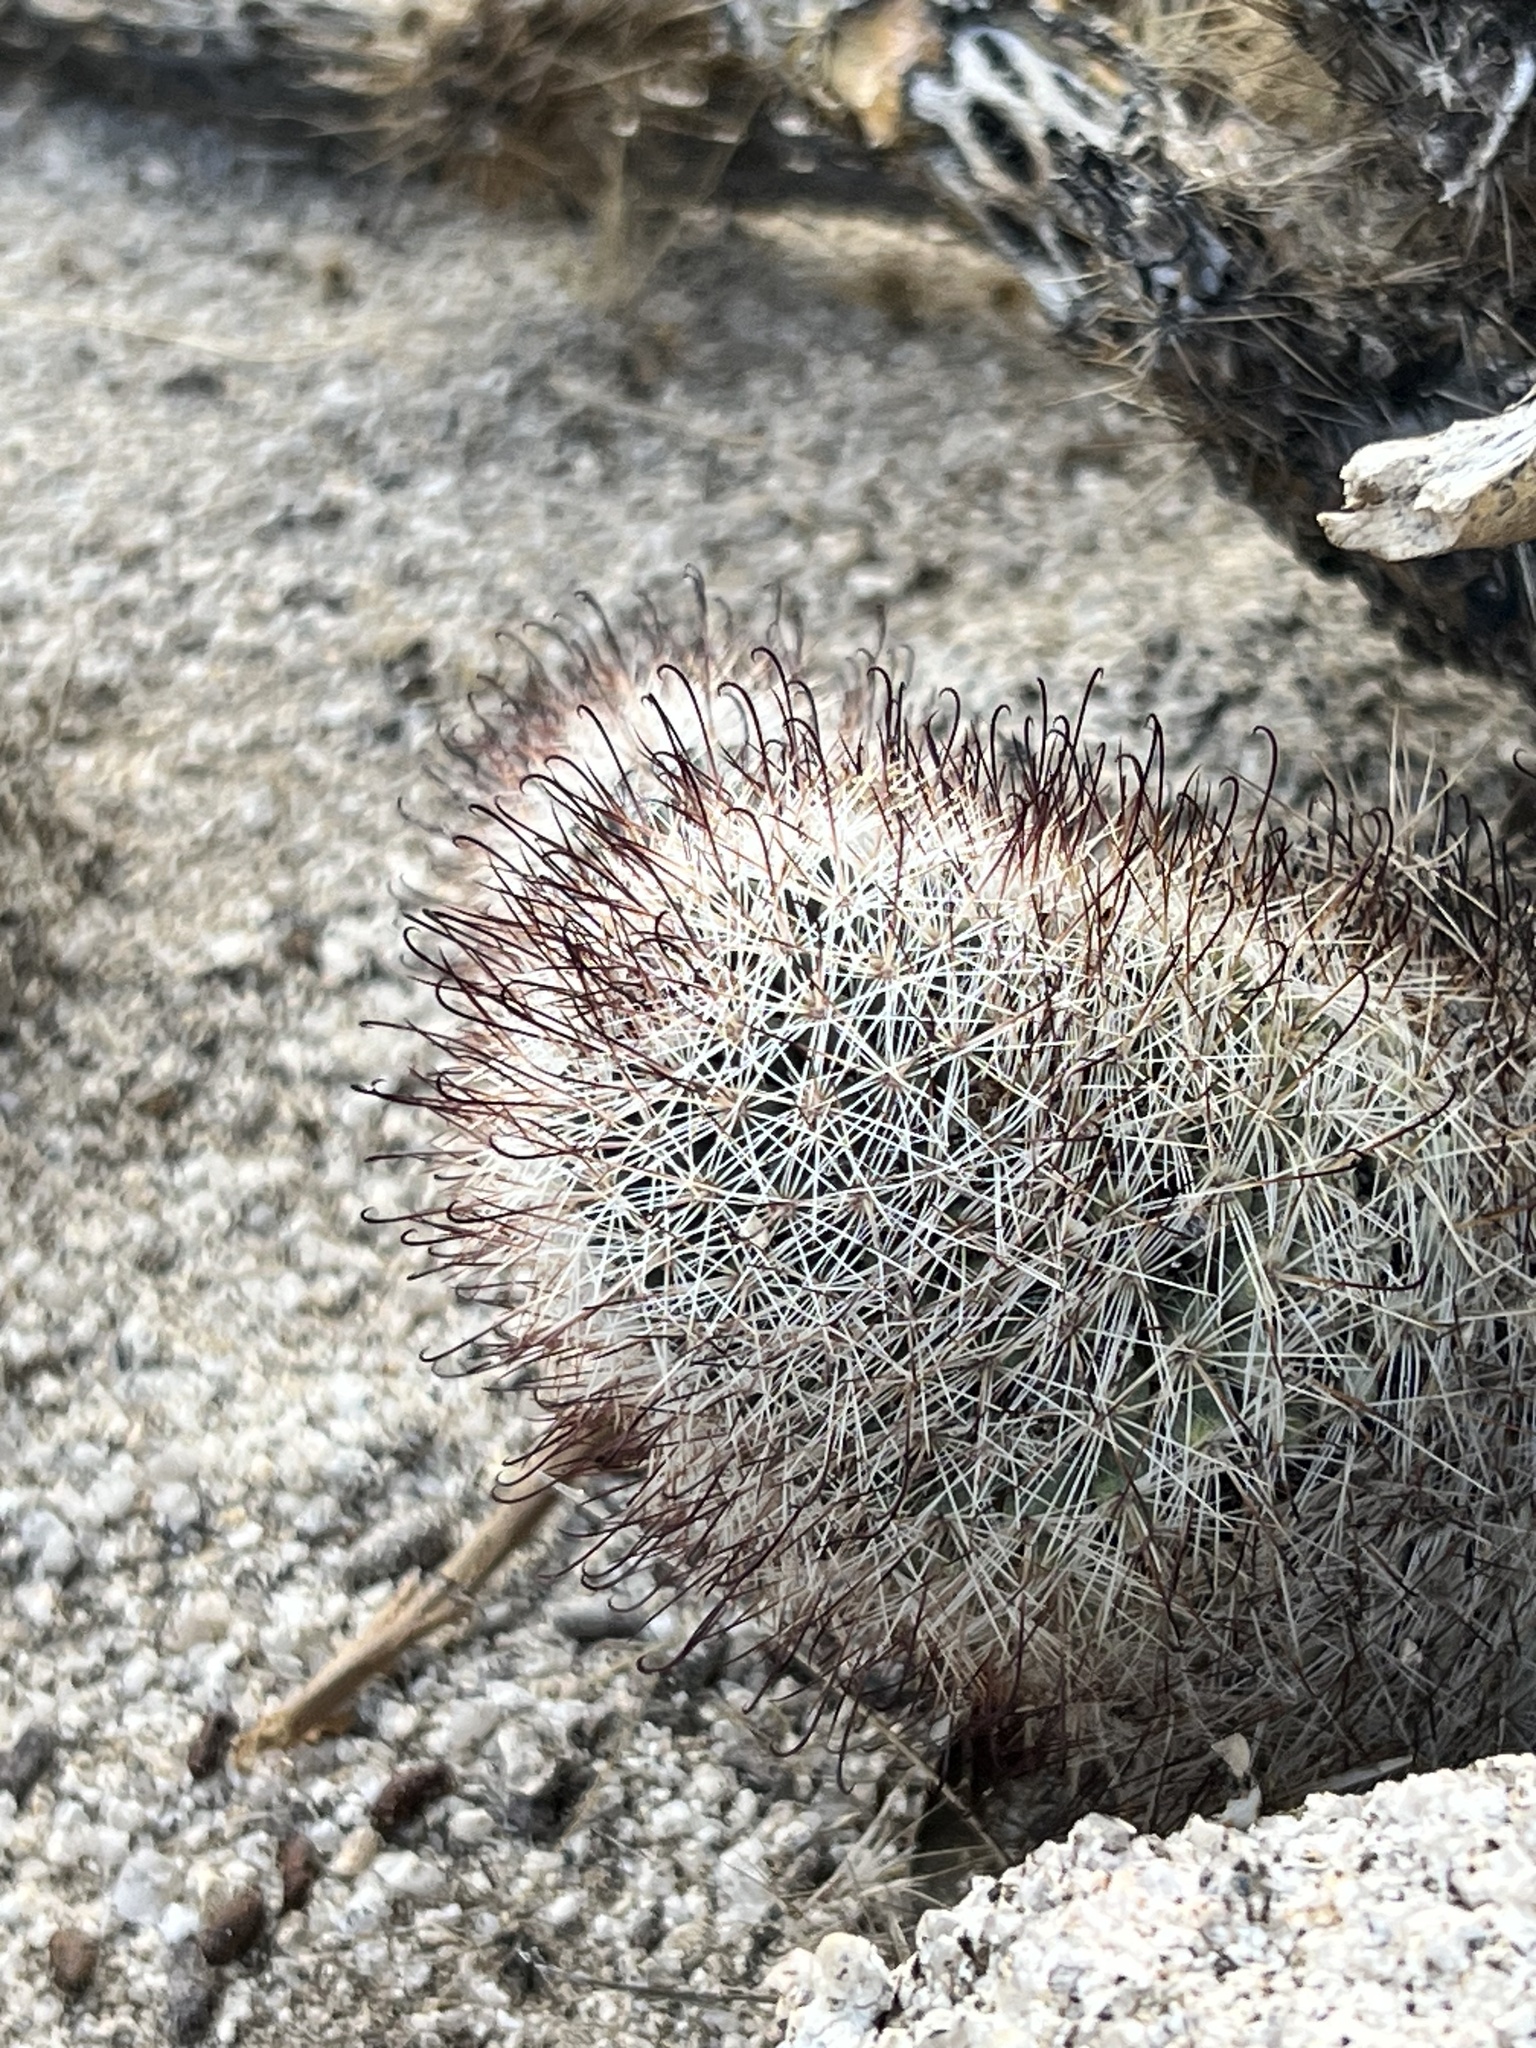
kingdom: Plantae
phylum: Tracheophyta
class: Magnoliopsida
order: Caryophyllales
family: Cactaceae
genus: Cochemiea
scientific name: Cochemiea dioica
